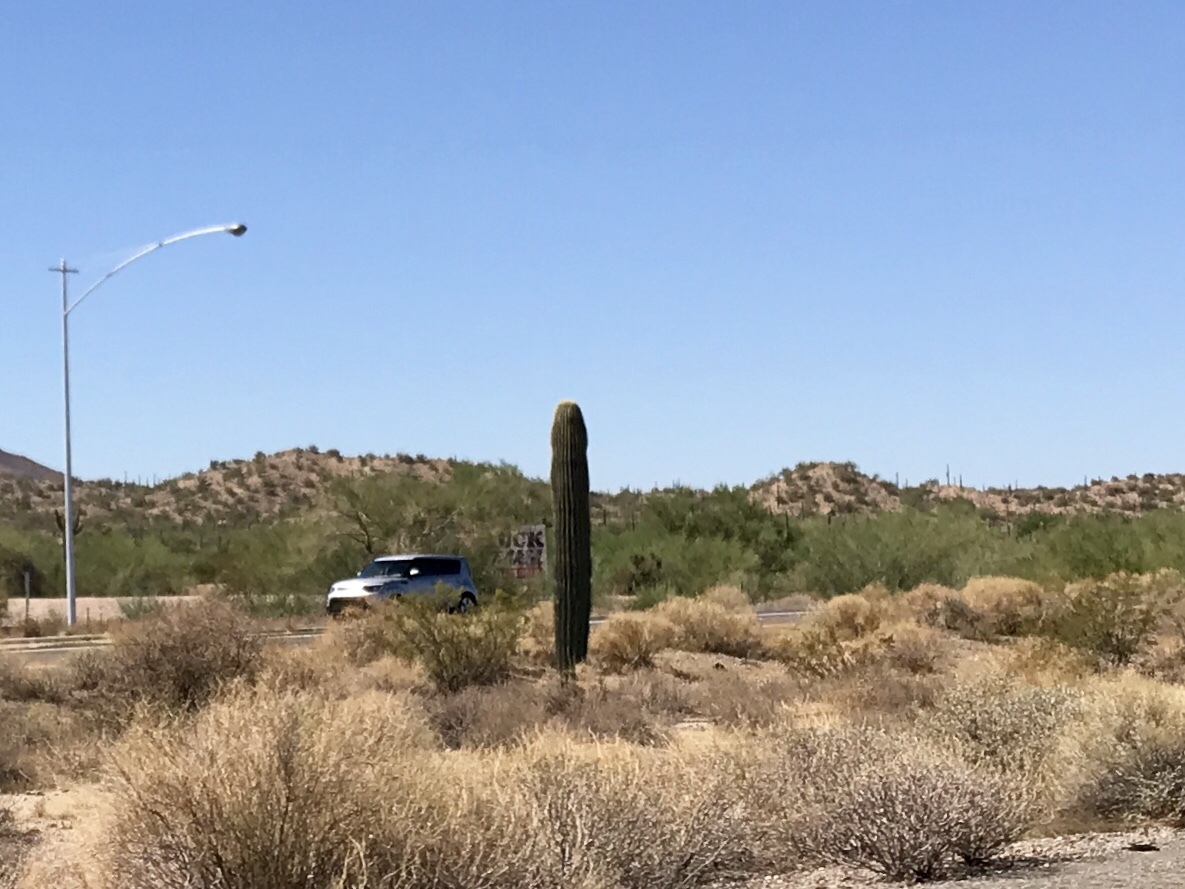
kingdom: Plantae
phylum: Tracheophyta
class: Magnoliopsida
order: Caryophyllales
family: Cactaceae
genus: Carnegiea
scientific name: Carnegiea gigantea
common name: Saguaro
